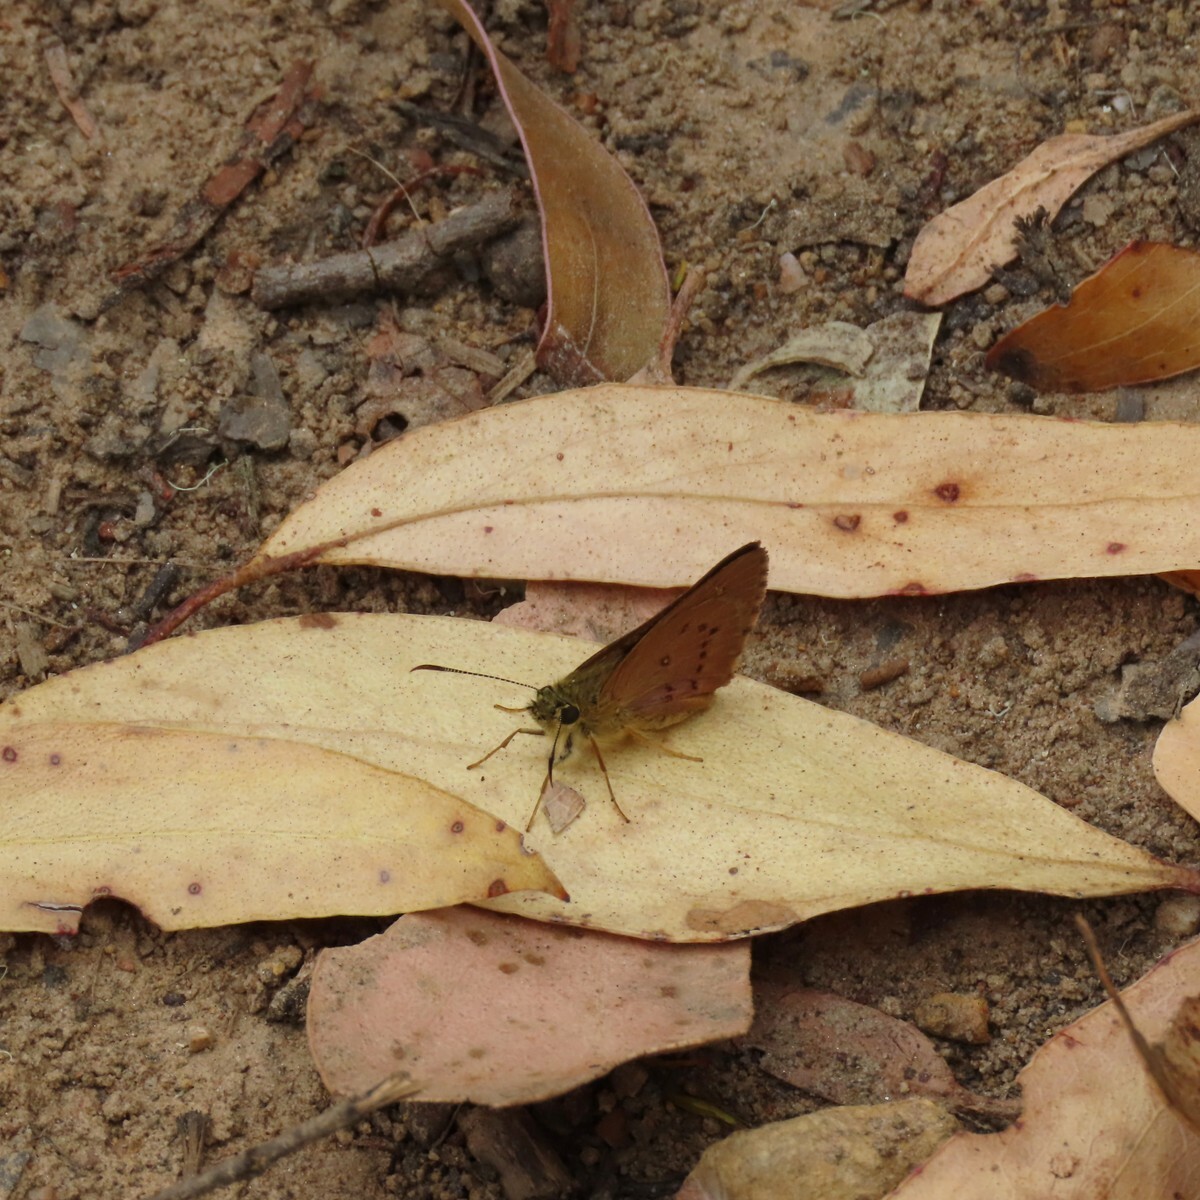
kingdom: Animalia
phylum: Arthropoda
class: Insecta
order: Lepidoptera
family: Hesperiidae
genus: Toxidia
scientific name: Toxidia
